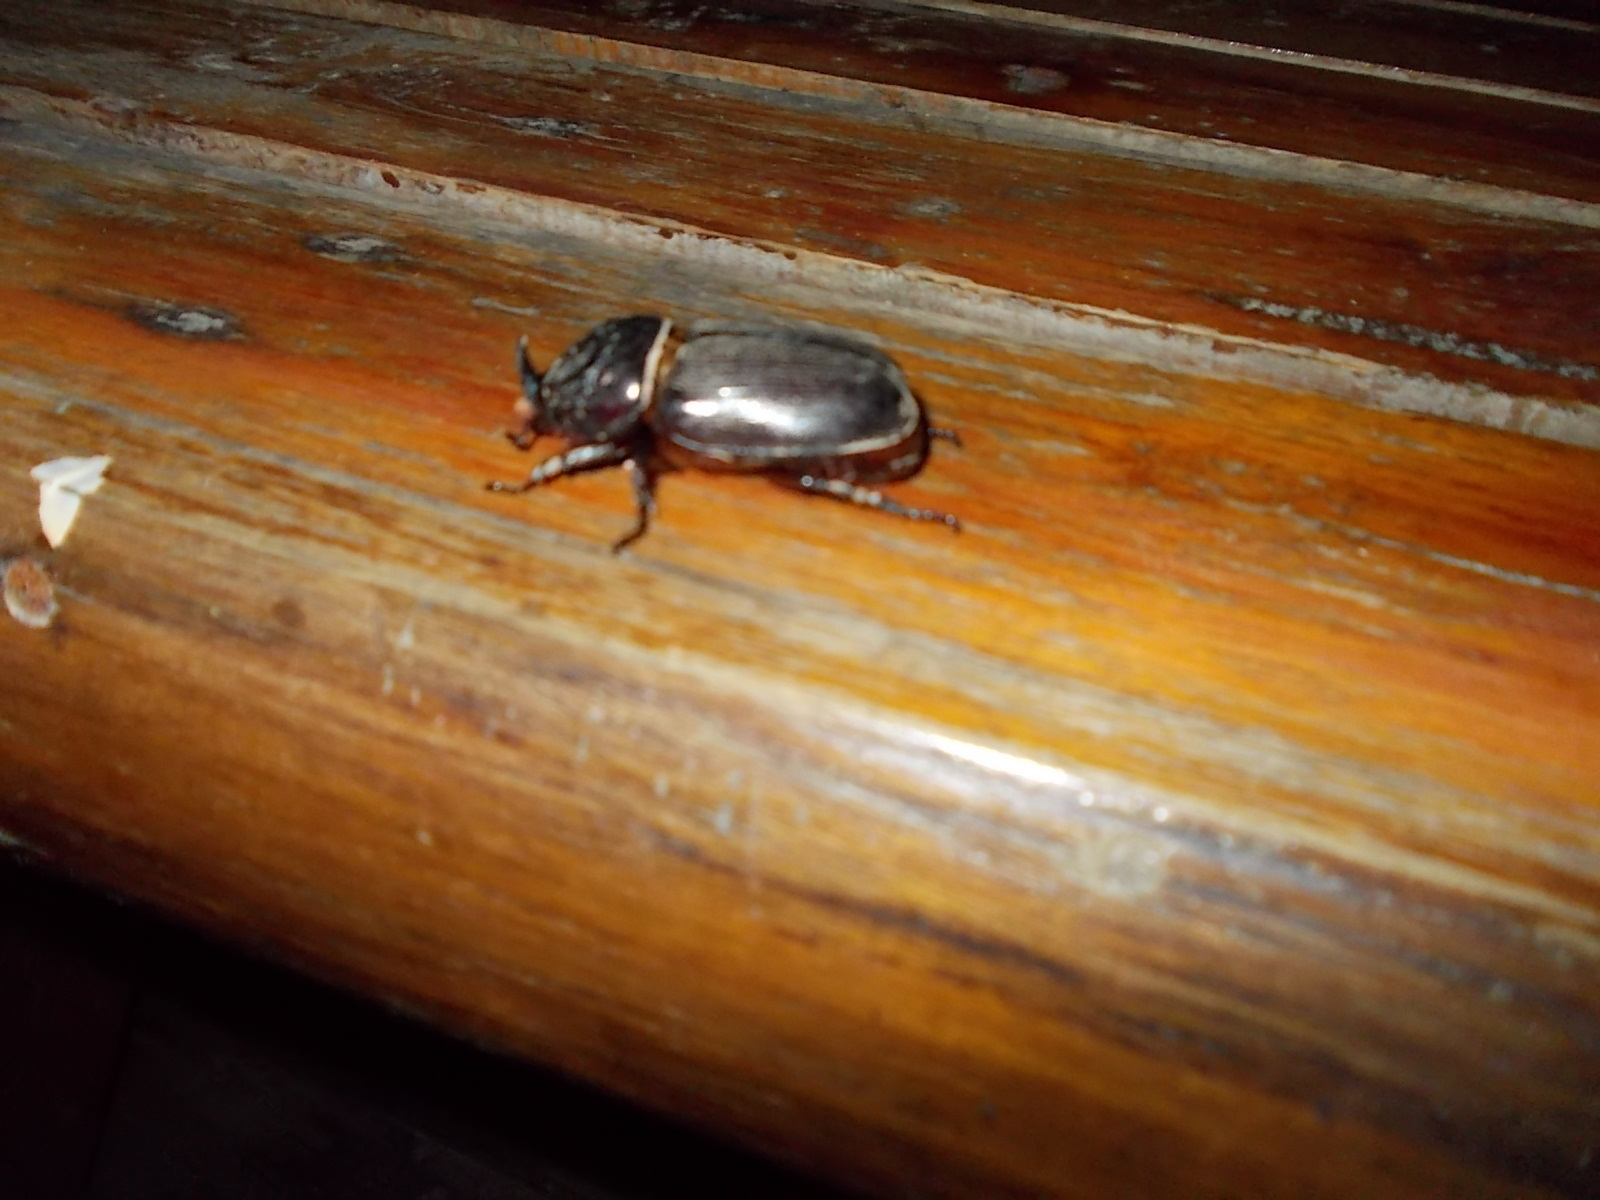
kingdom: Animalia
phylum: Arthropoda
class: Insecta
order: Coleoptera
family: Scarabaeidae
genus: Oryctes
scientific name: Oryctes rhinoceros
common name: Coconut rhinoceros beetle
